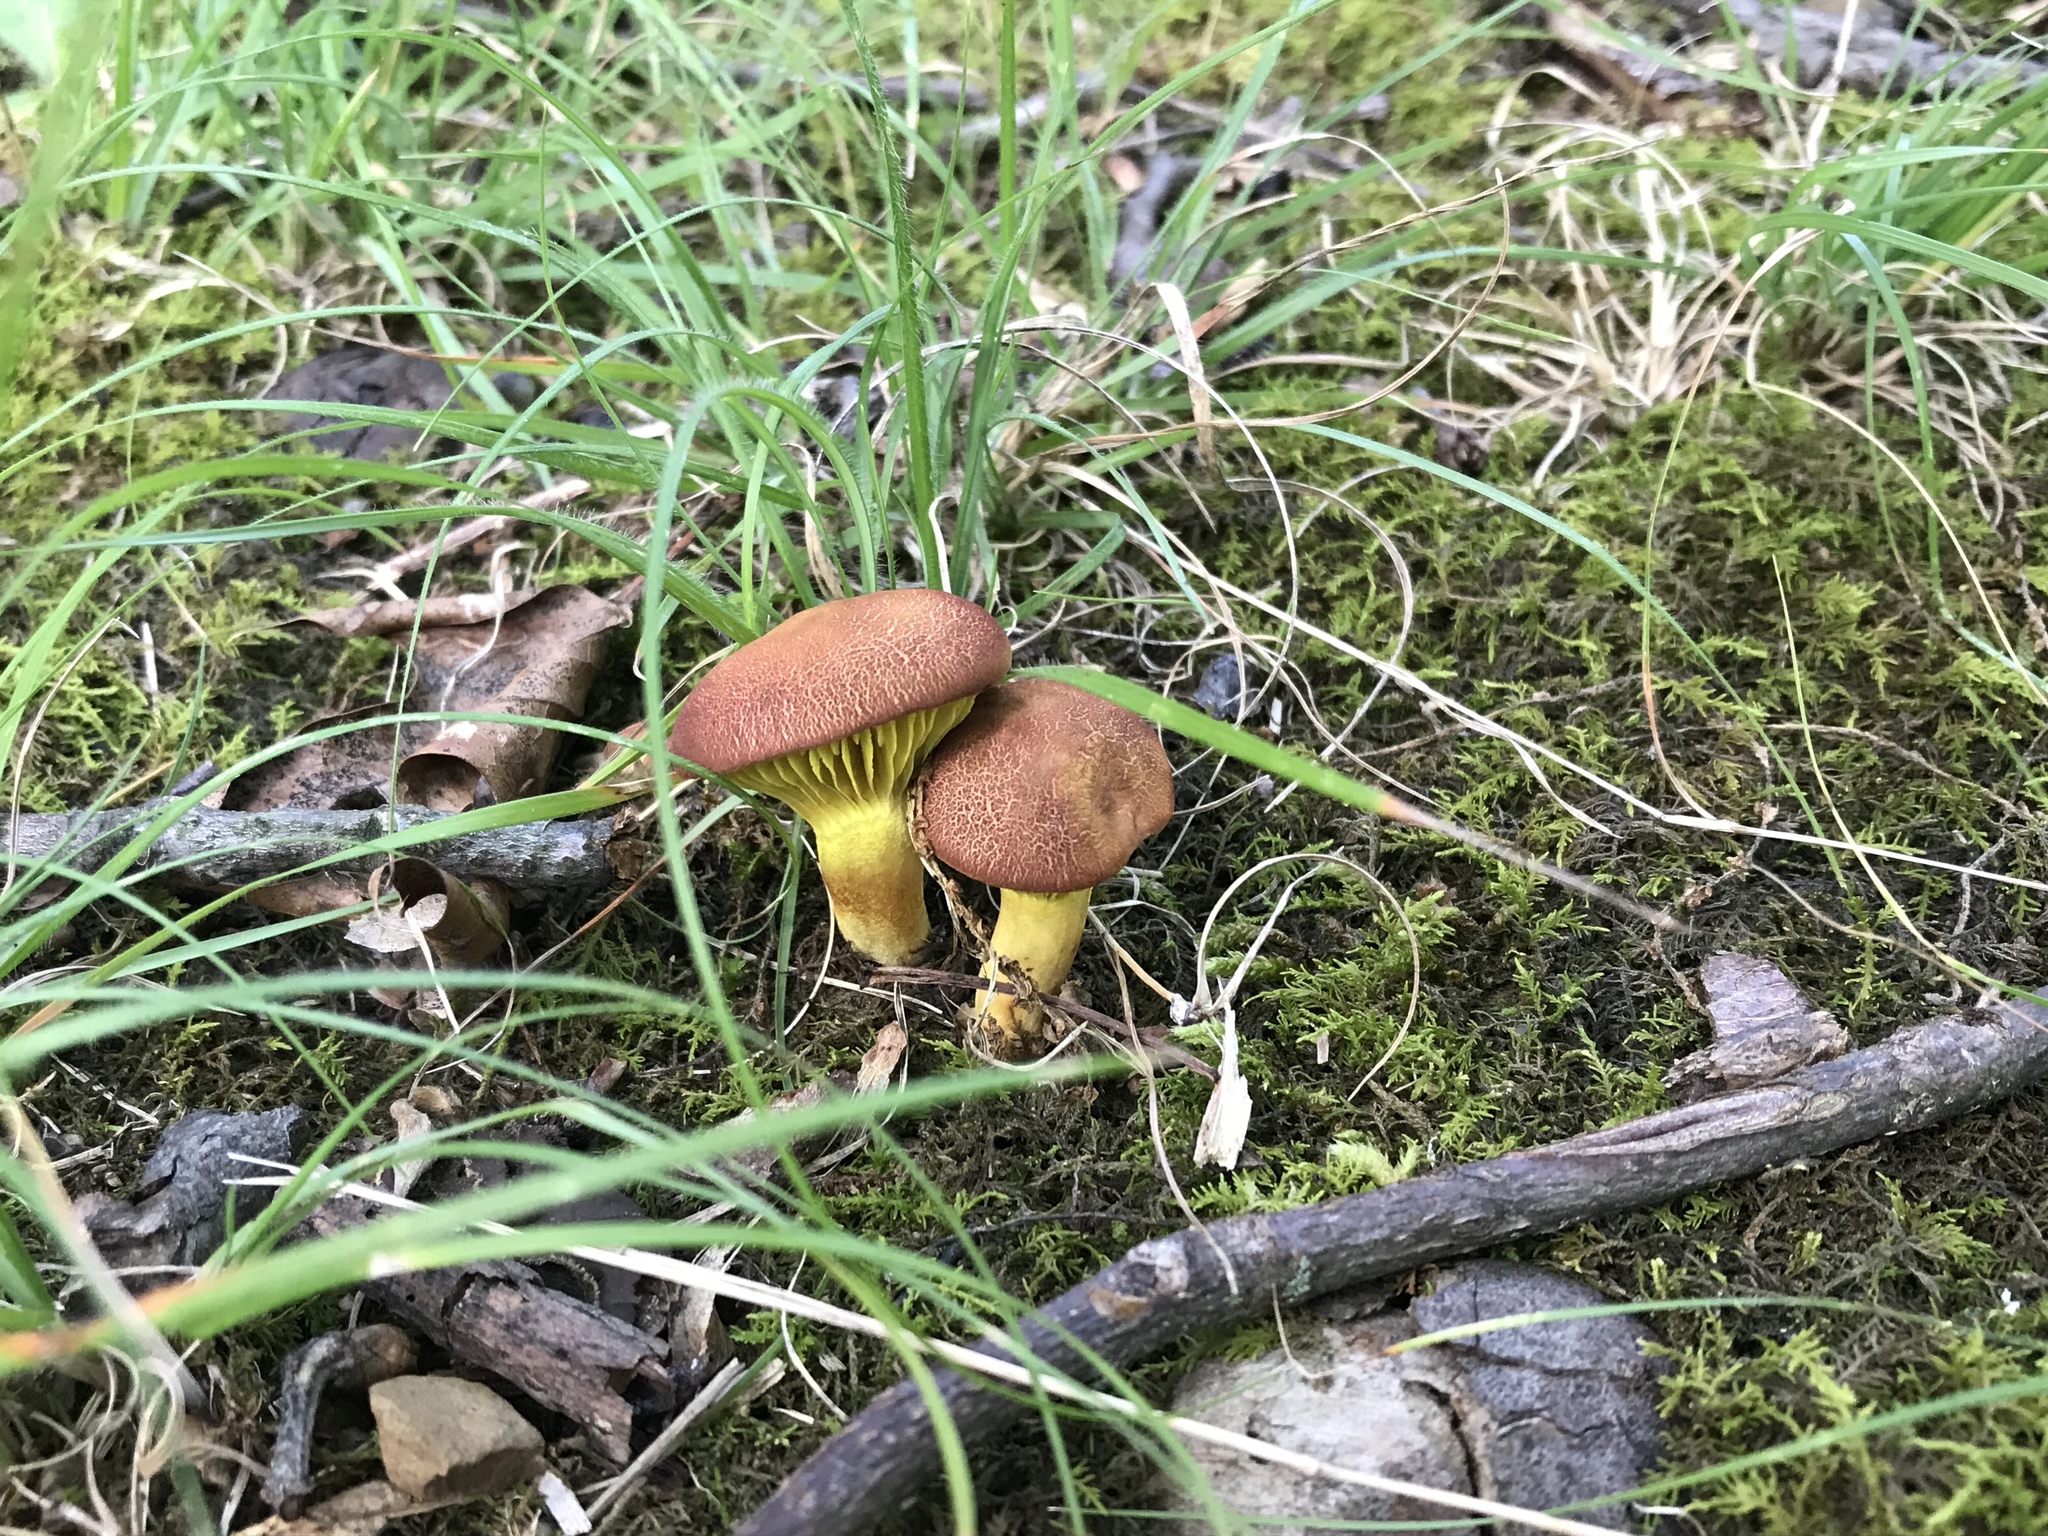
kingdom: Fungi
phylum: Basidiomycota
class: Agaricomycetes
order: Boletales
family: Boletaceae
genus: Phylloporus
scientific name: Phylloporus rhodoxanthus
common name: Golden gilled bolete
